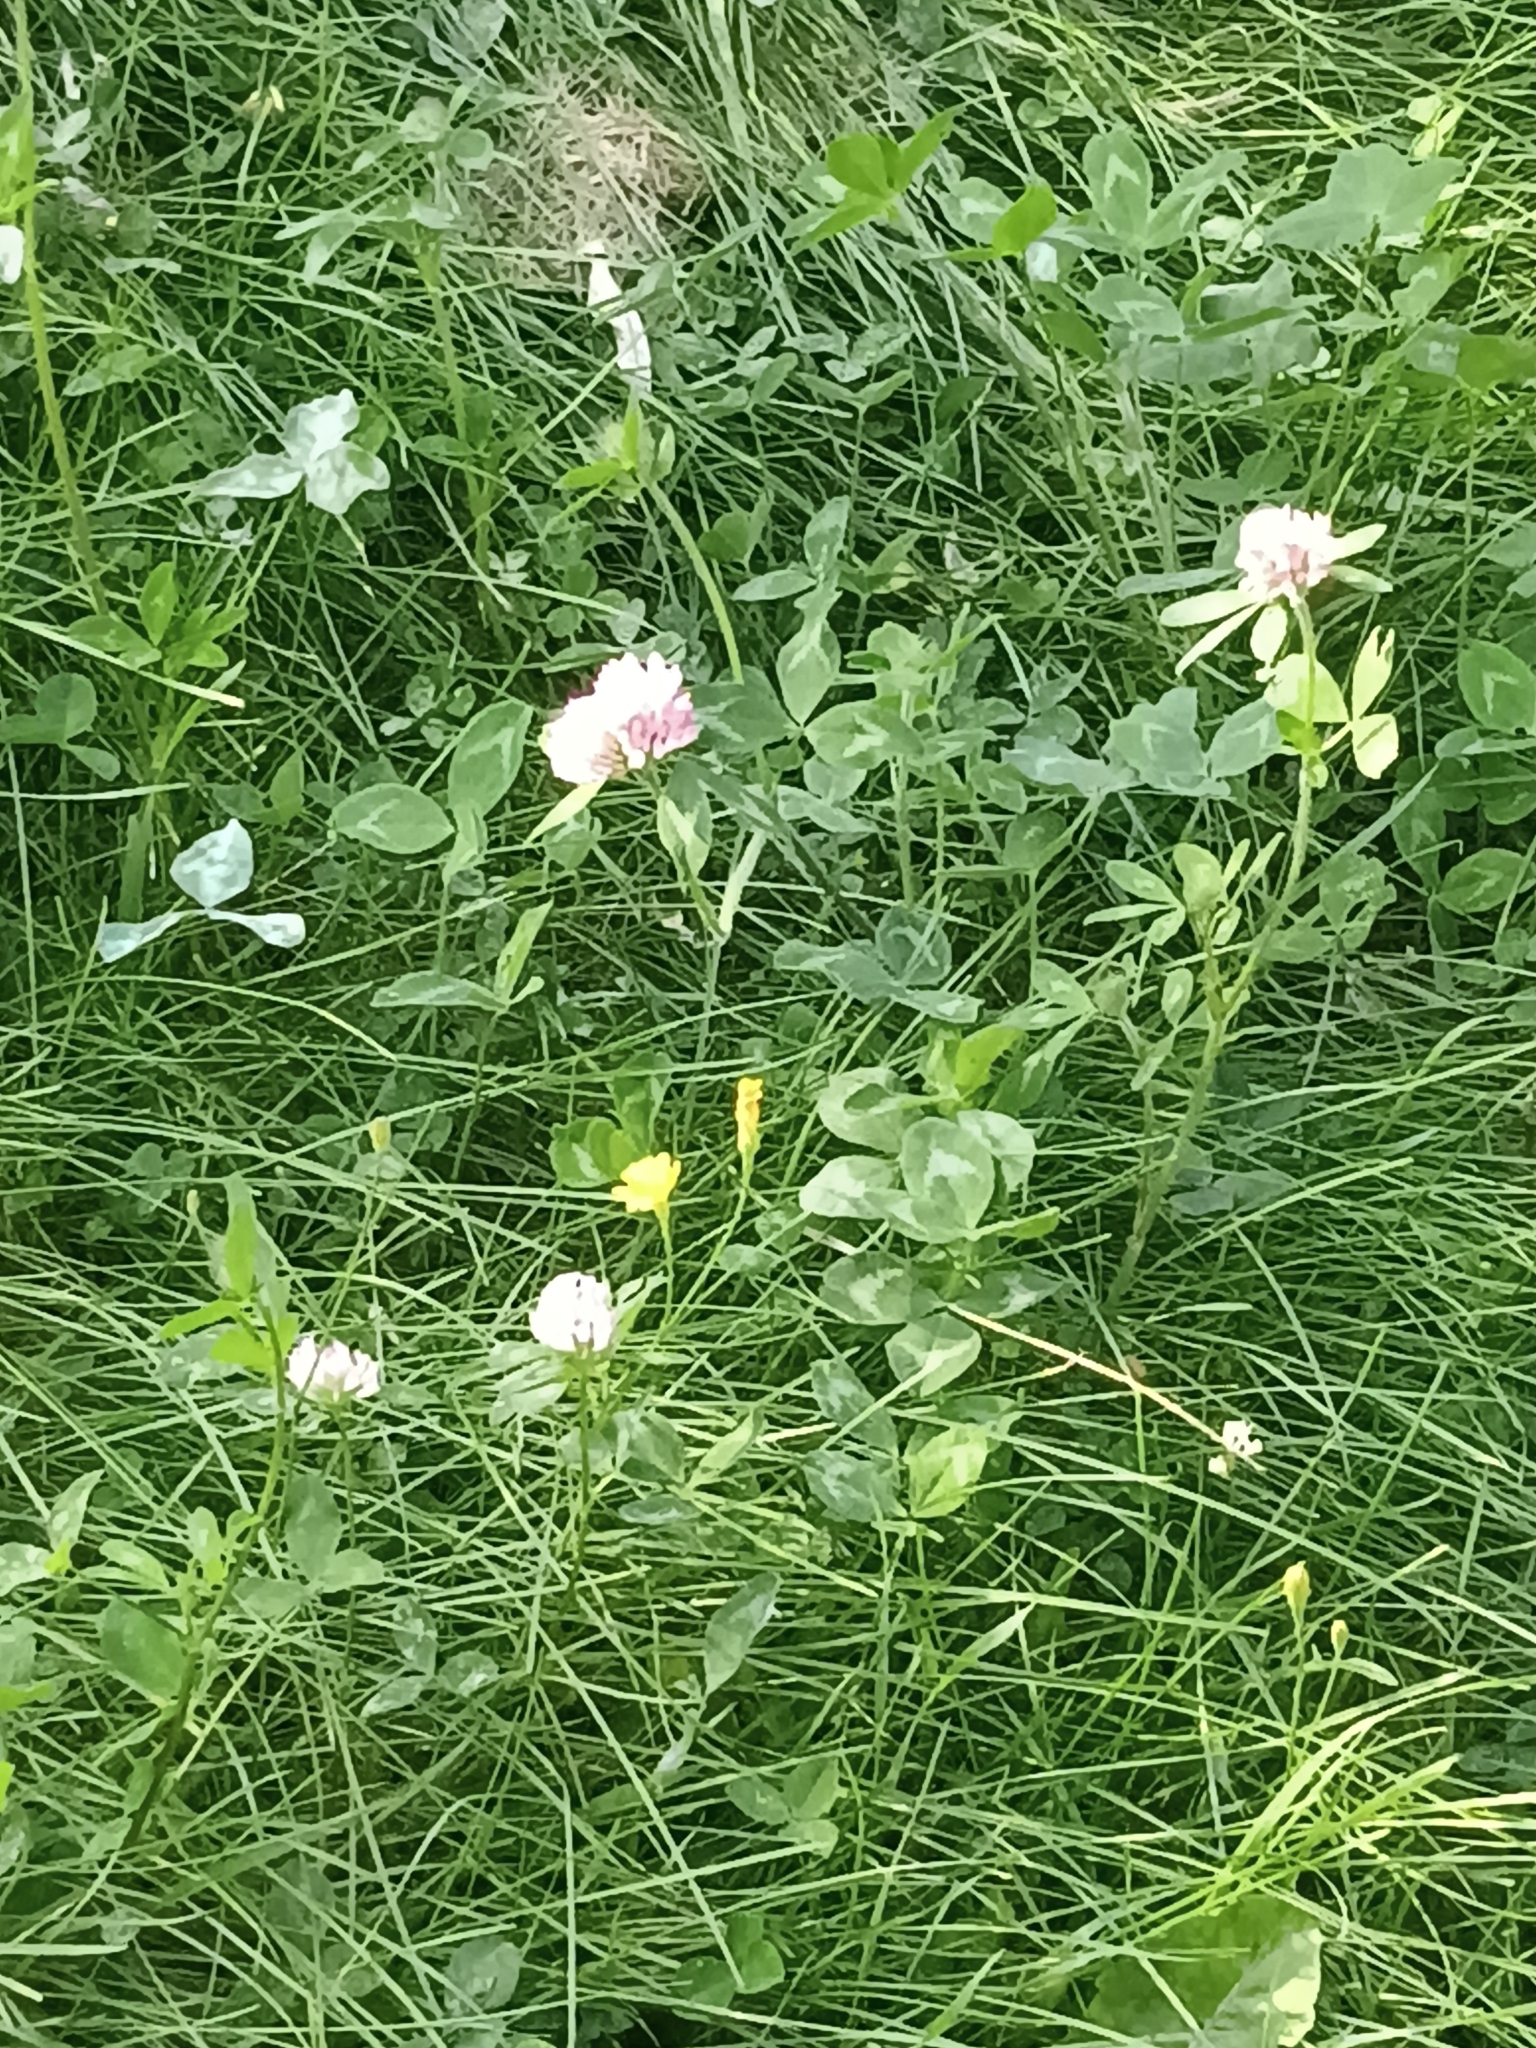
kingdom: Plantae
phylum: Tracheophyta
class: Magnoliopsida
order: Fabales
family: Fabaceae
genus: Trifolium
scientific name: Trifolium pratense
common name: Red clover
